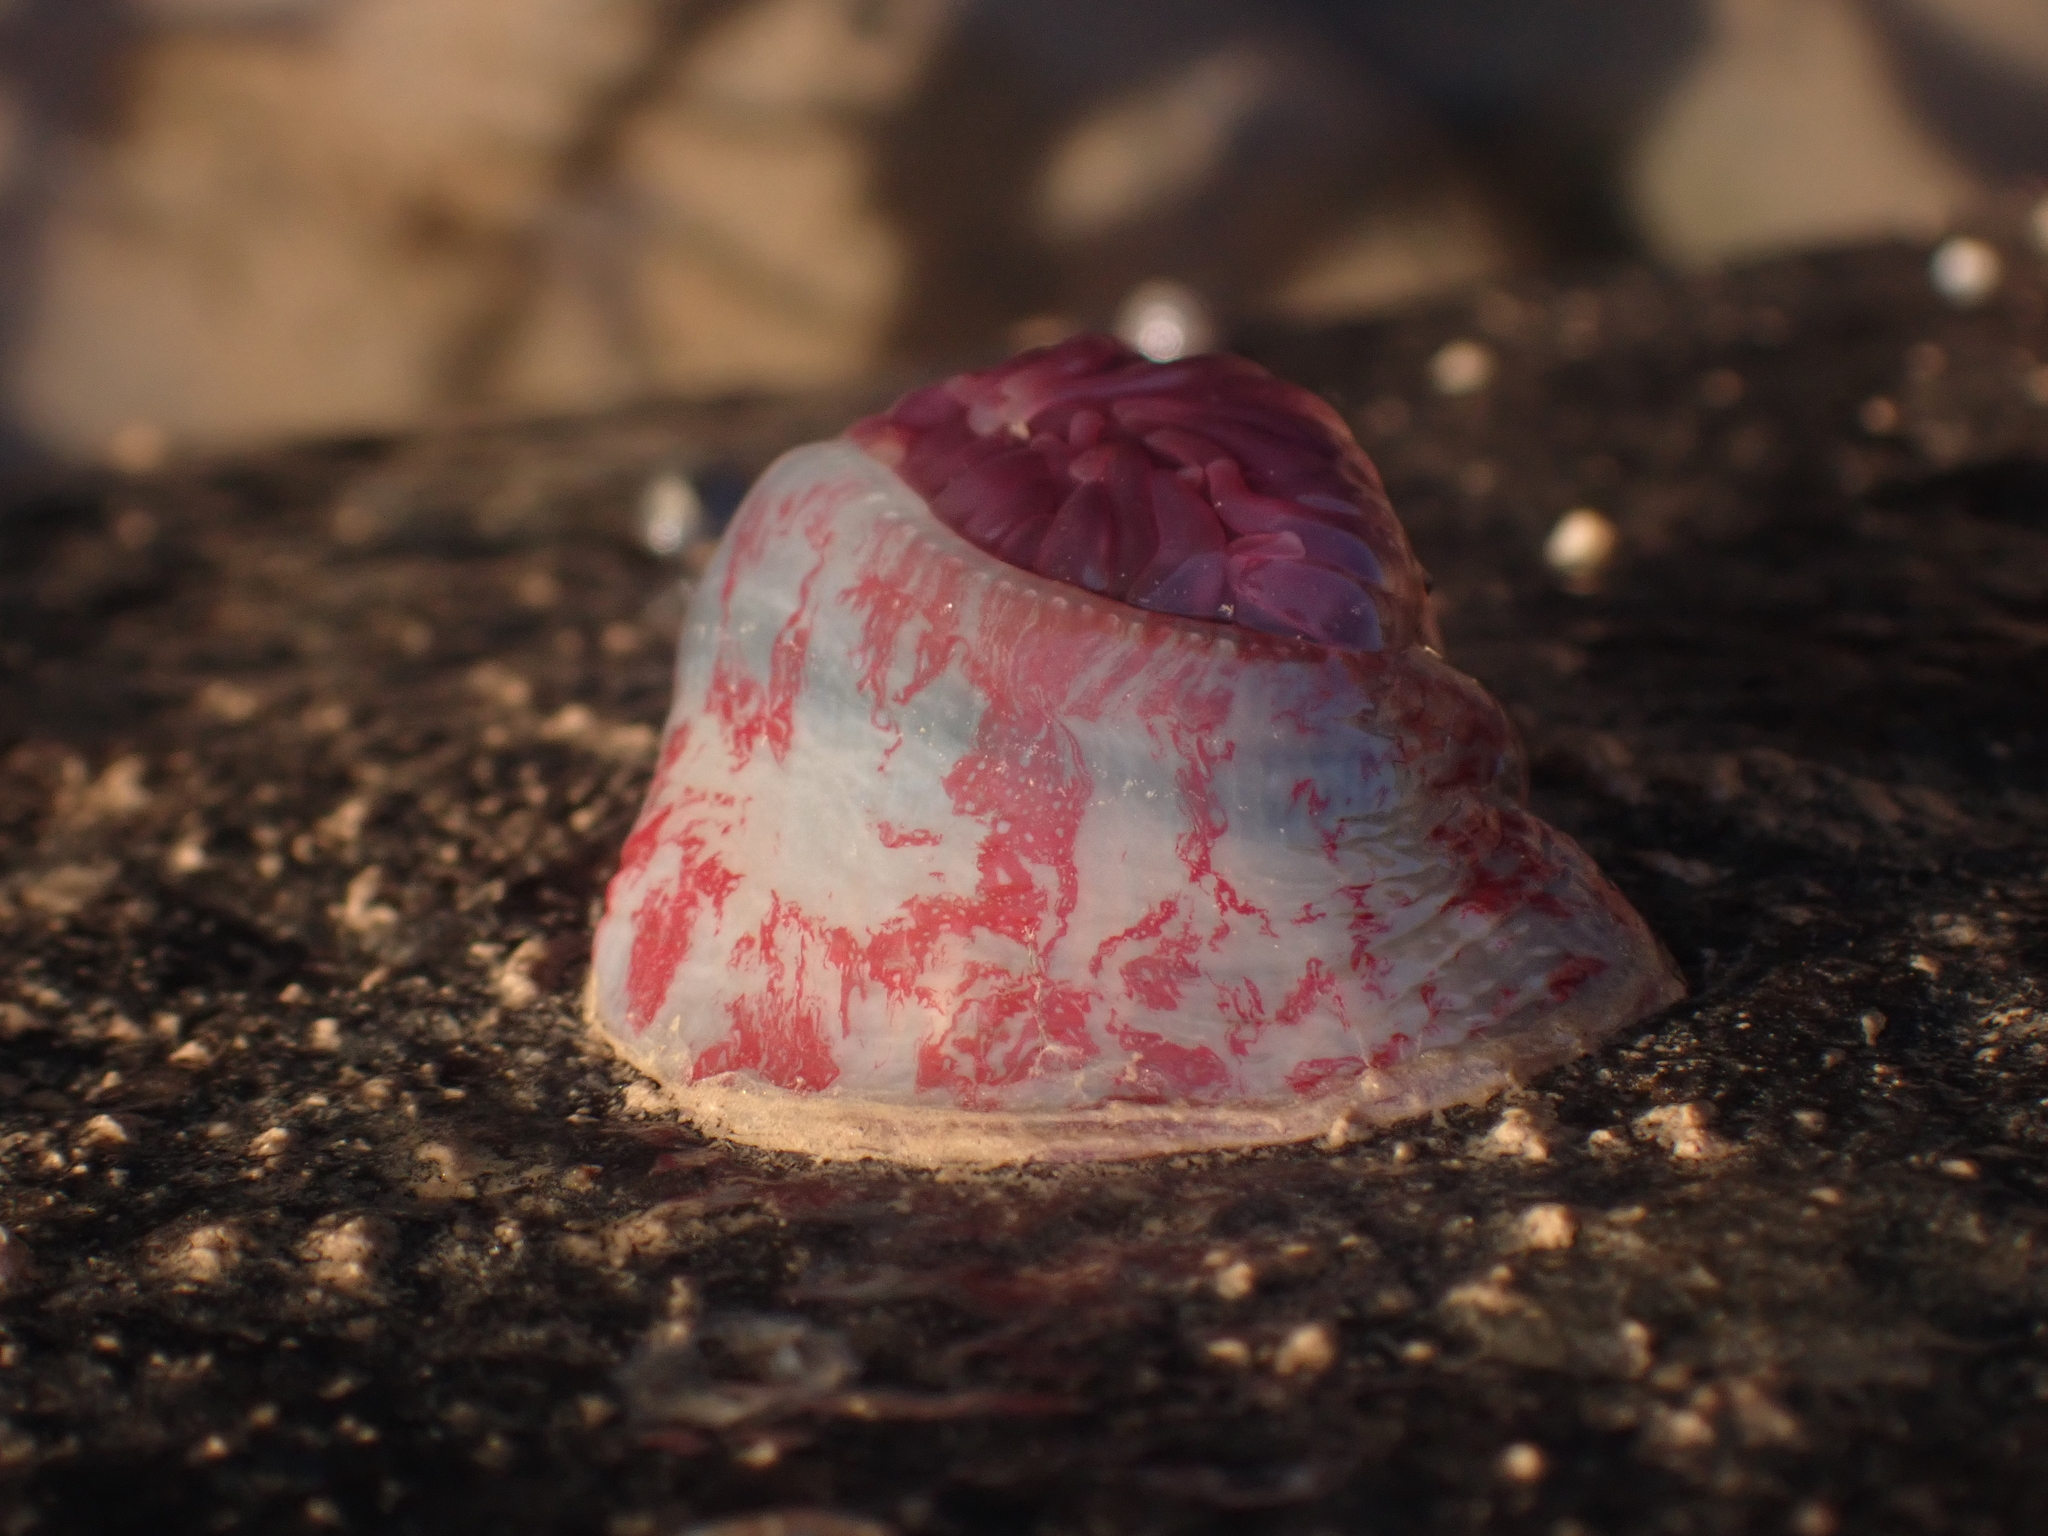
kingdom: Animalia
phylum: Cnidaria
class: Anthozoa
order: Actiniaria
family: Actiniidae
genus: Urticina
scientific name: Urticina crassicornis
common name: Mottled anemone
